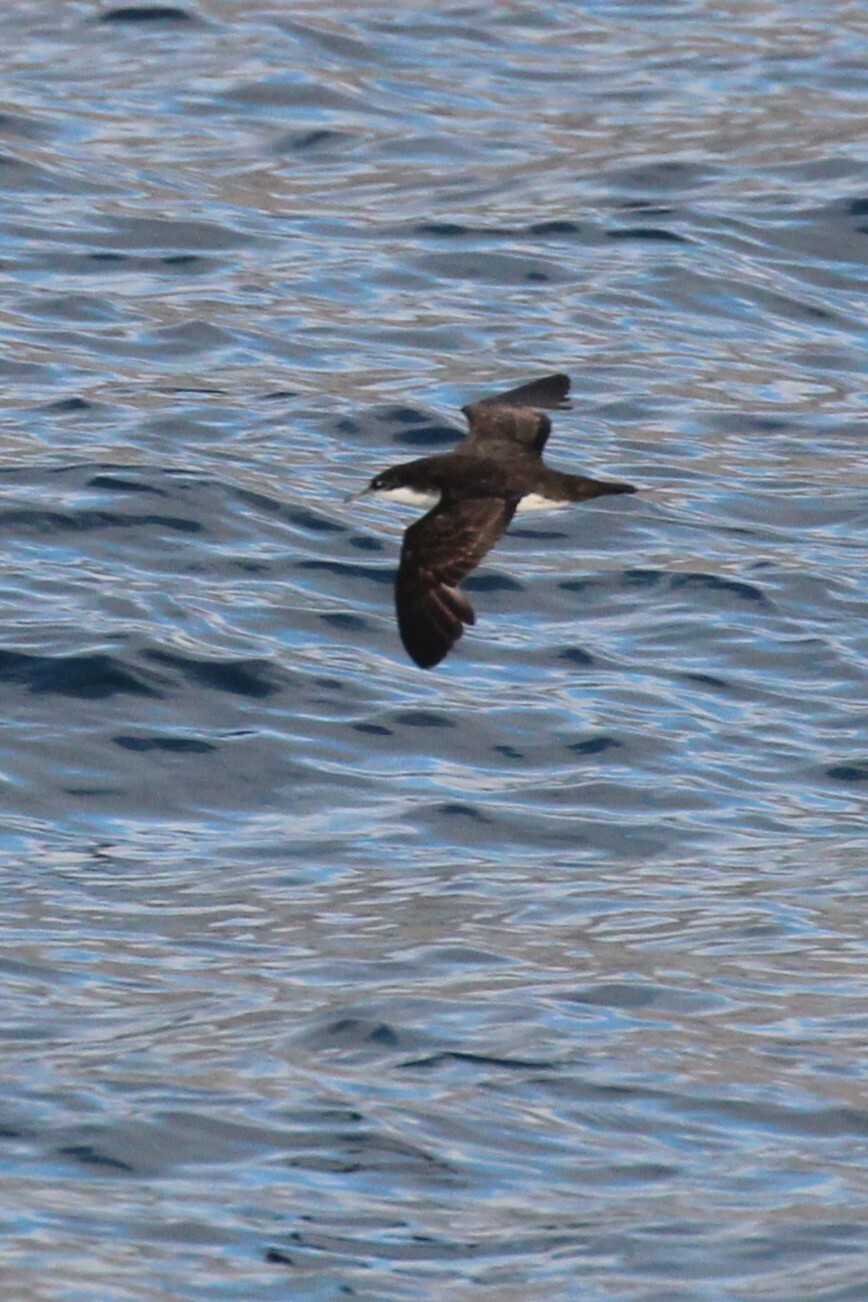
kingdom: Animalia
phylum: Chordata
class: Aves
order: Procellariiformes
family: Procellariidae
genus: Puffinus
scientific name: Puffinus subalaris
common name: Galapagos shearwater
